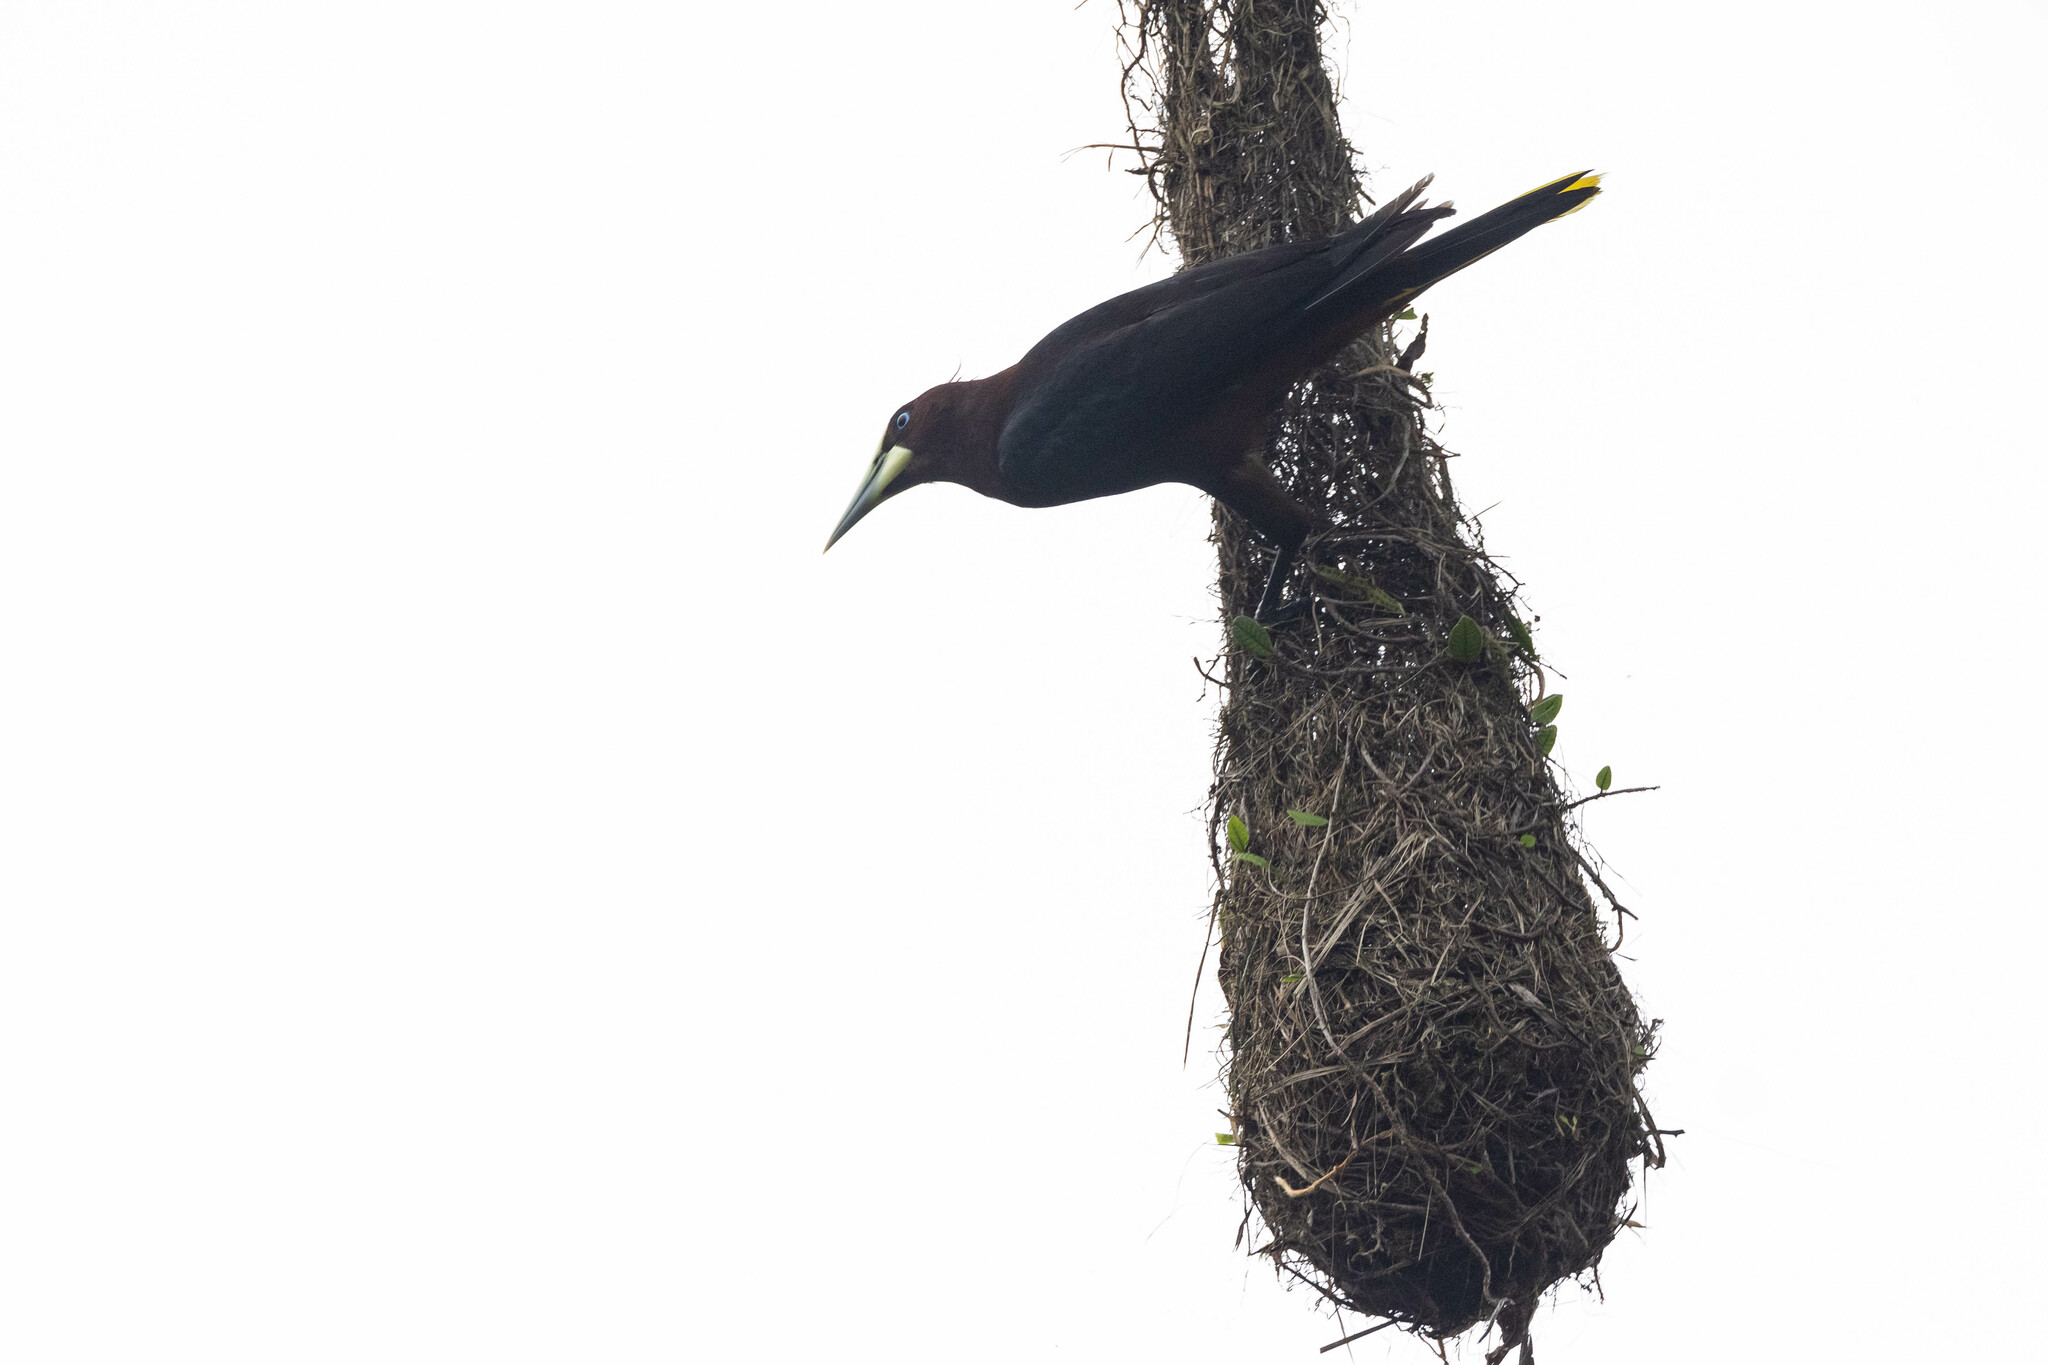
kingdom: Animalia
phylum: Chordata
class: Aves
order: Passeriformes
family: Icteridae
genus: Psarocolius
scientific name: Psarocolius wagleri
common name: Chestnut-headed oropendola
